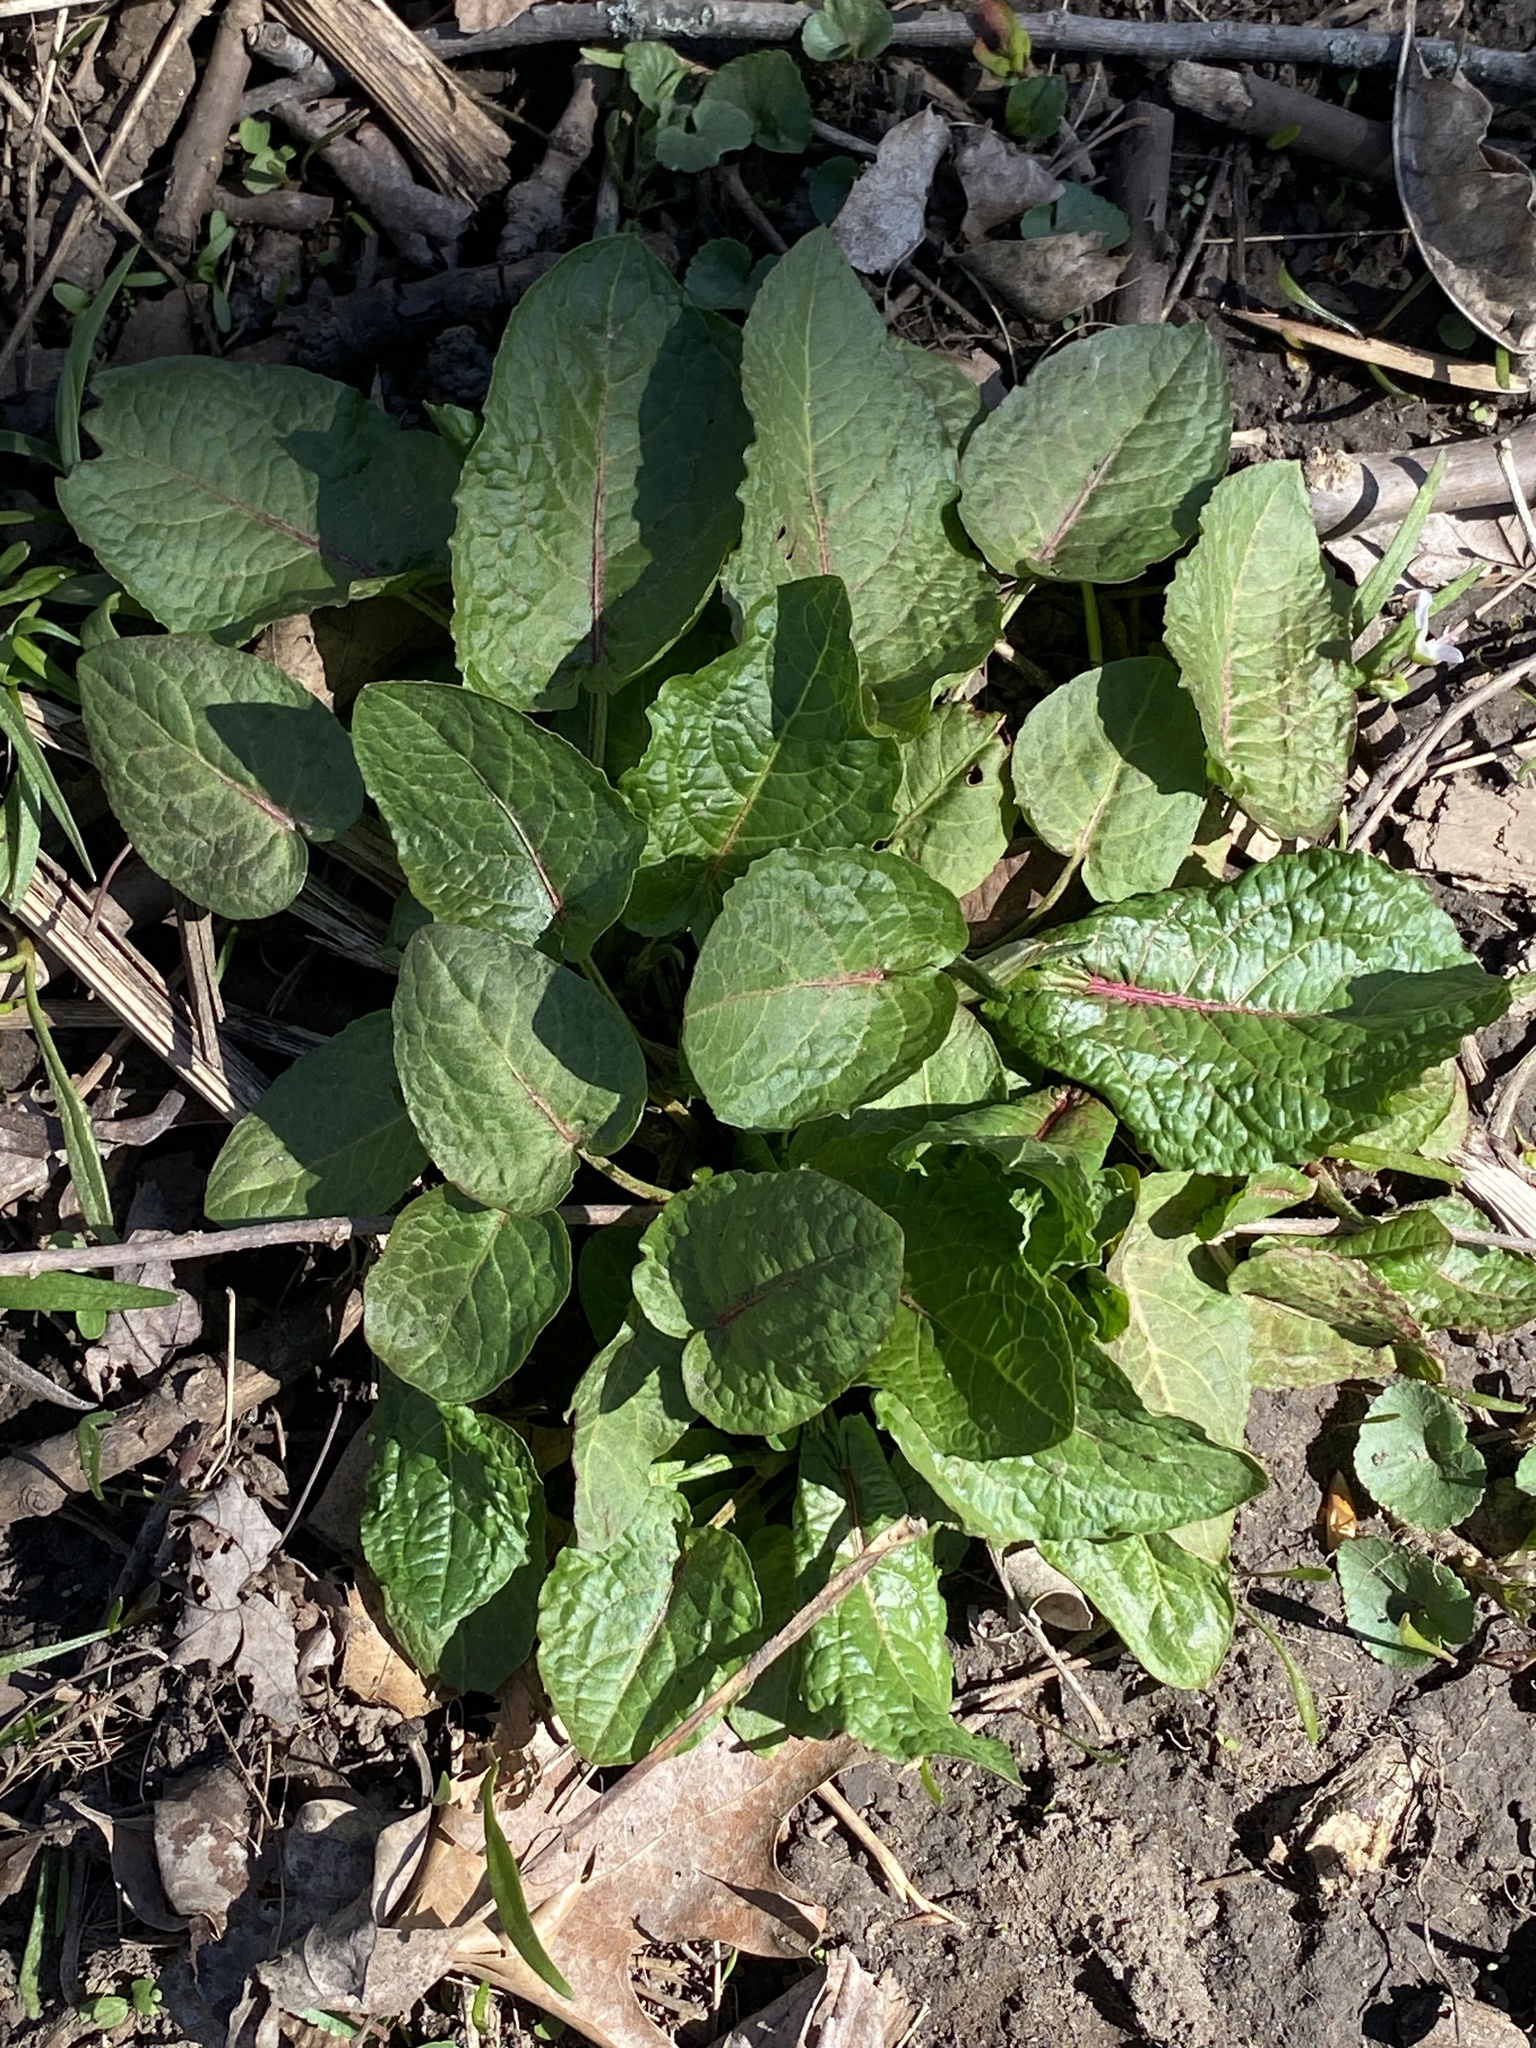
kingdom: Plantae
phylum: Tracheophyta
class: Magnoliopsida
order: Caryophyllales
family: Polygonaceae
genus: Rumex
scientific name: Rumex obtusifolius
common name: Bitter dock
